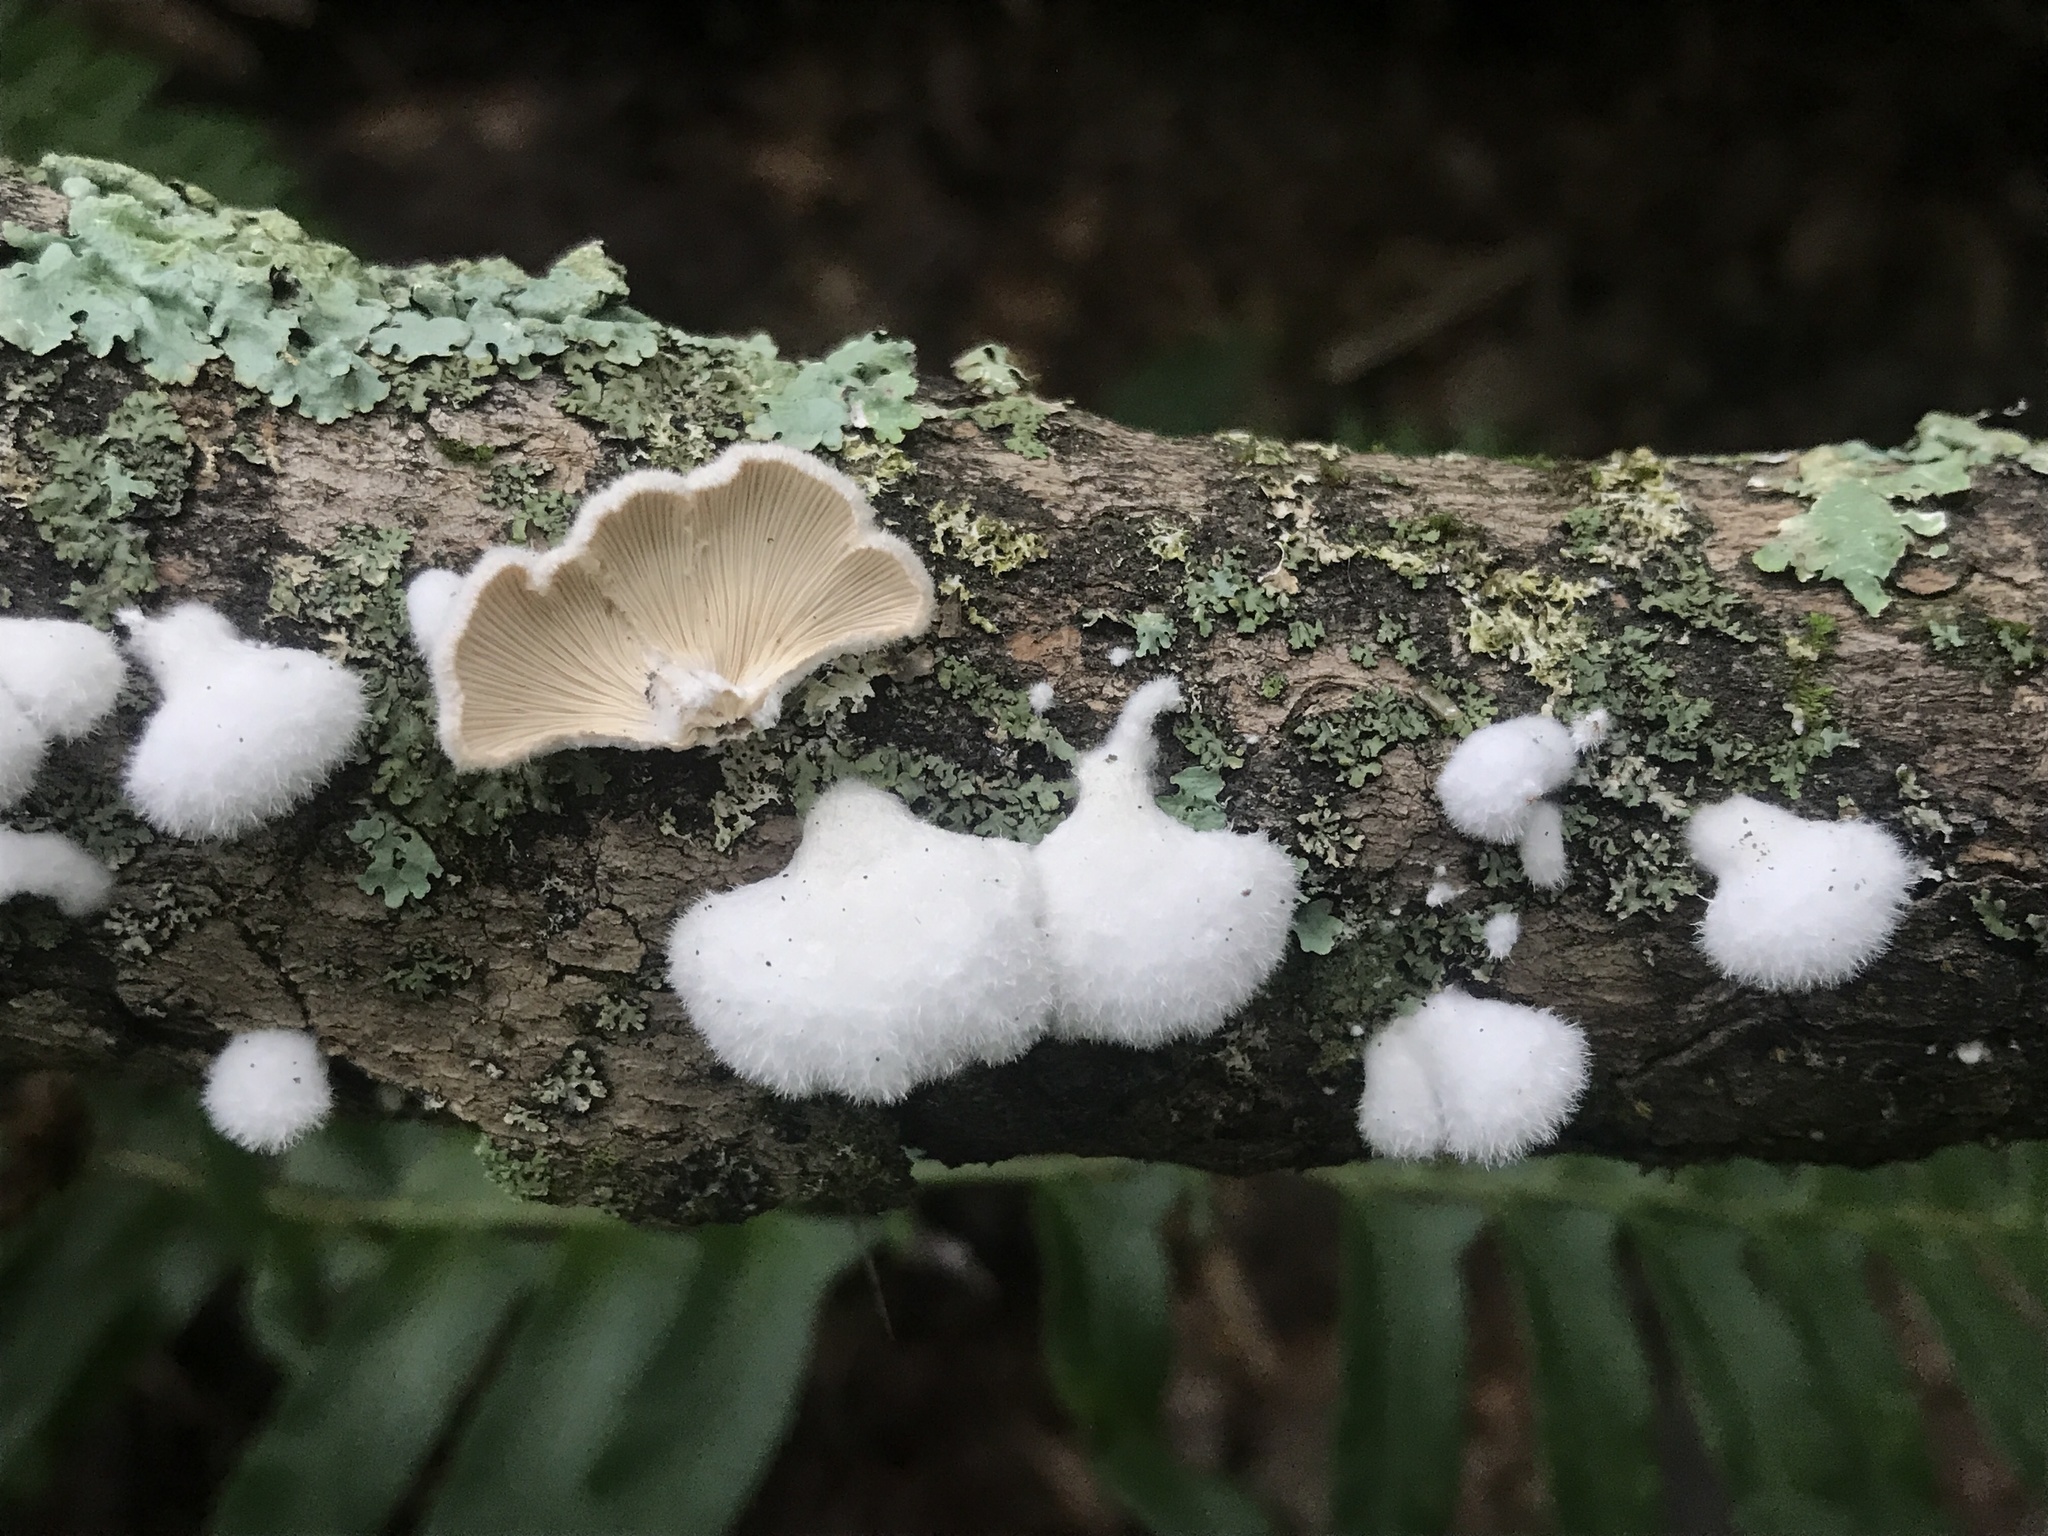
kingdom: Fungi
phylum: Basidiomycota
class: Agaricomycetes
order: Agaricales
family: Schizophyllaceae
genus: Schizophyllum
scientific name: Schizophyllum commune
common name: Common porecrust
